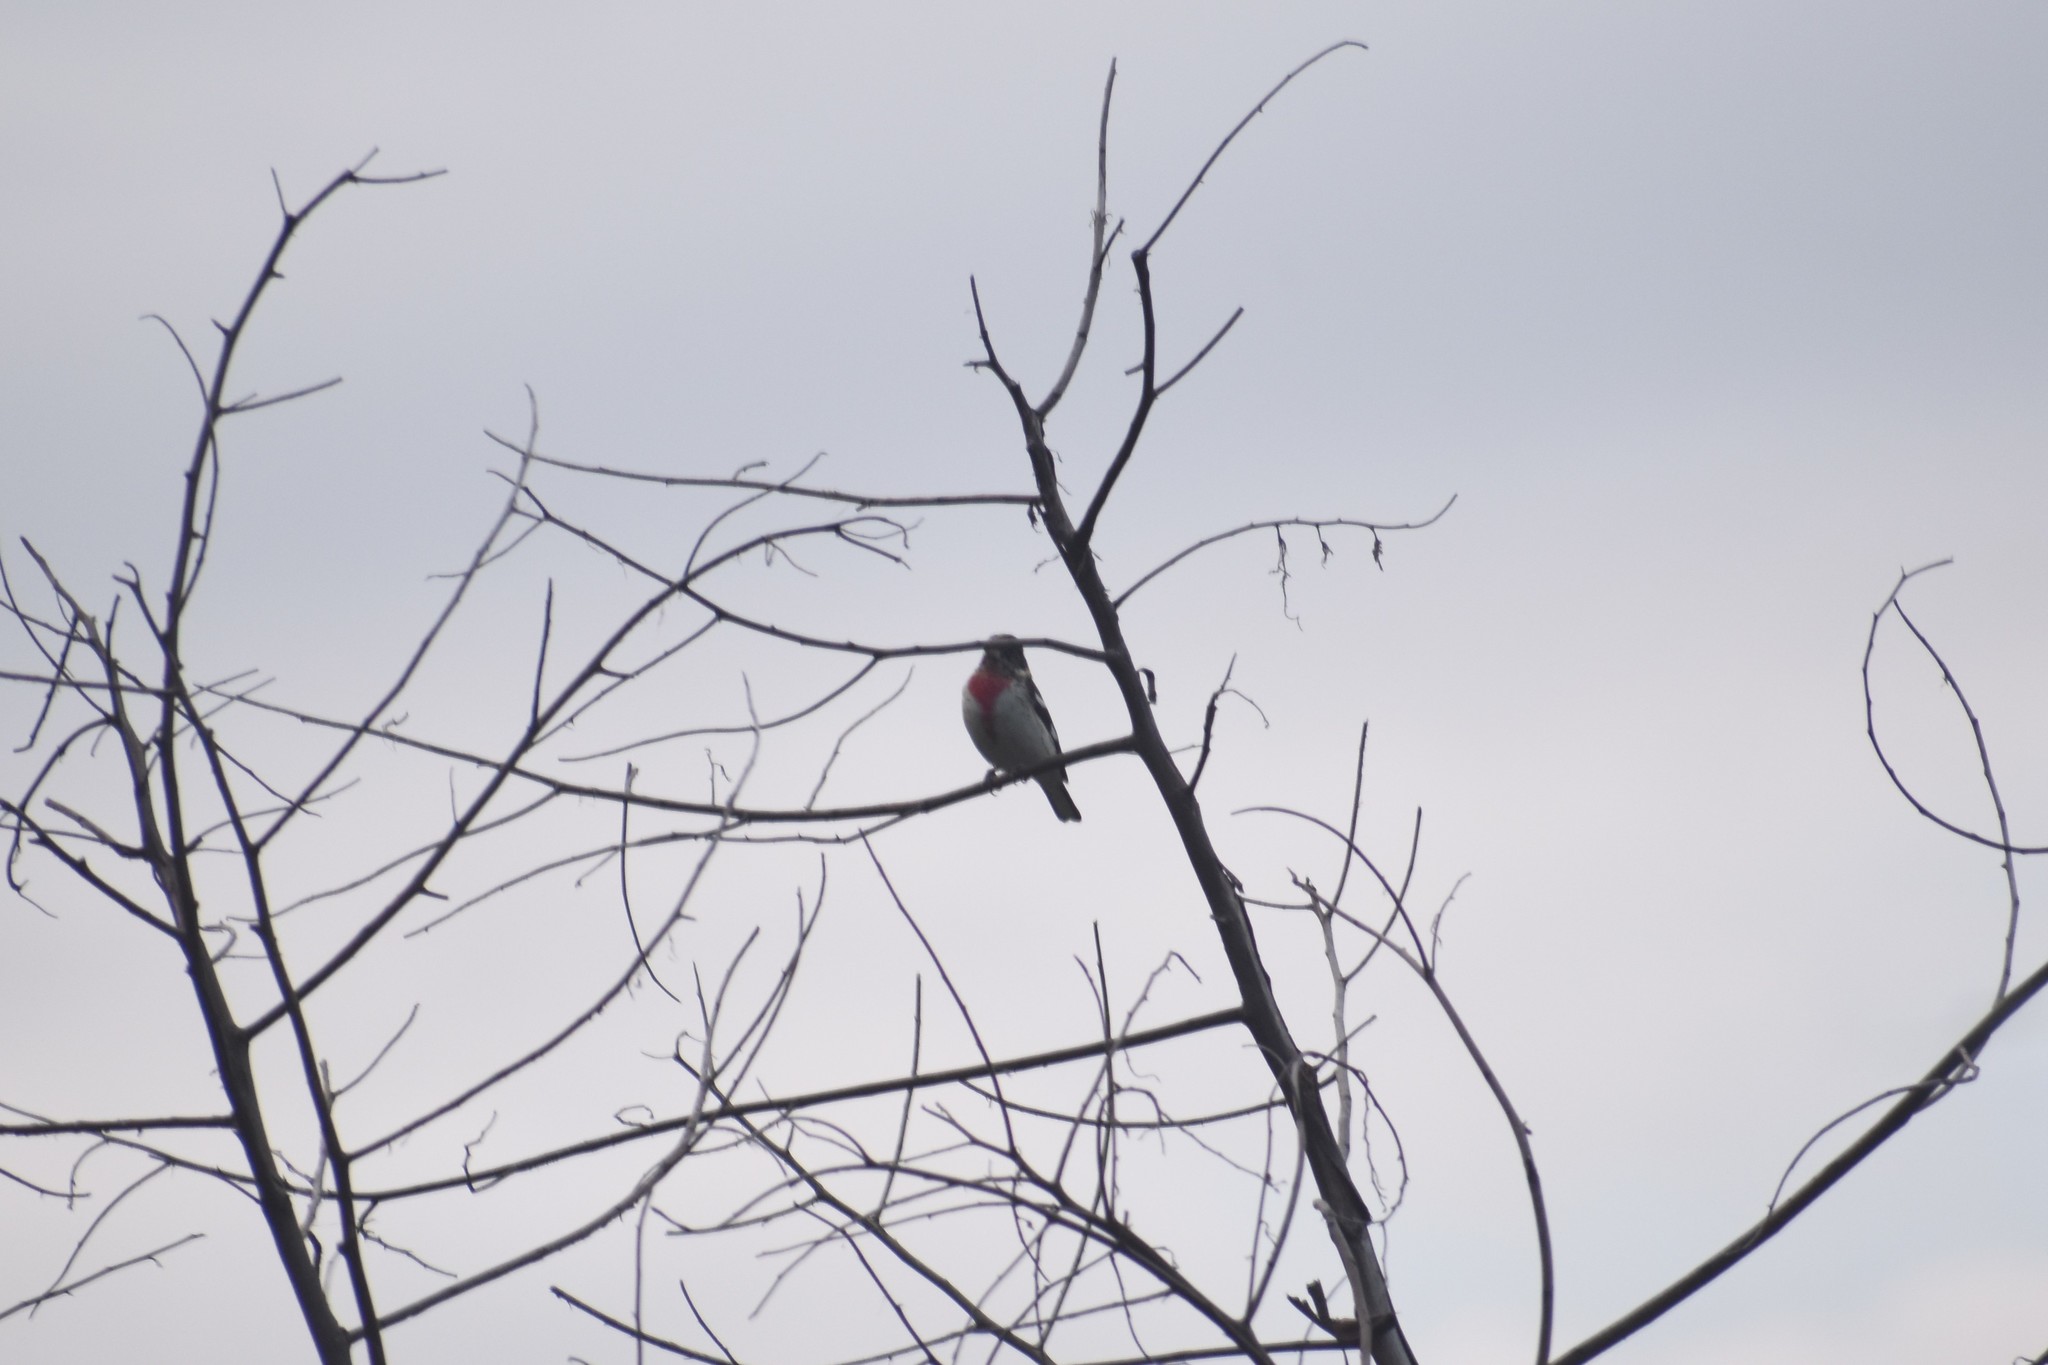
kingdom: Animalia
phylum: Chordata
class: Aves
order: Passeriformes
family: Cardinalidae
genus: Pheucticus
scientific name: Pheucticus ludovicianus
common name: Rose-breasted grosbeak
